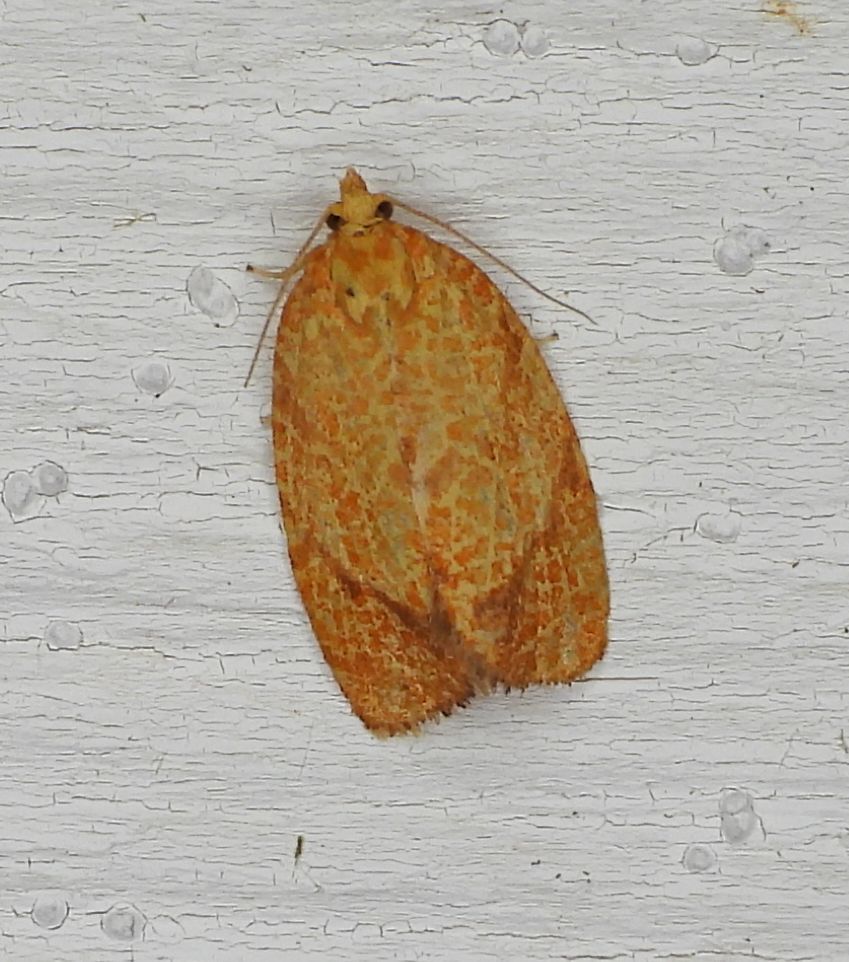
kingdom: Animalia
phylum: Arthropoda
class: Insecta
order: Lepidoptera
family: Tortricidae
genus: Argyrotaenia
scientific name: Argyrotaenia quadrifasciana
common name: Four-lined leafroller moth
